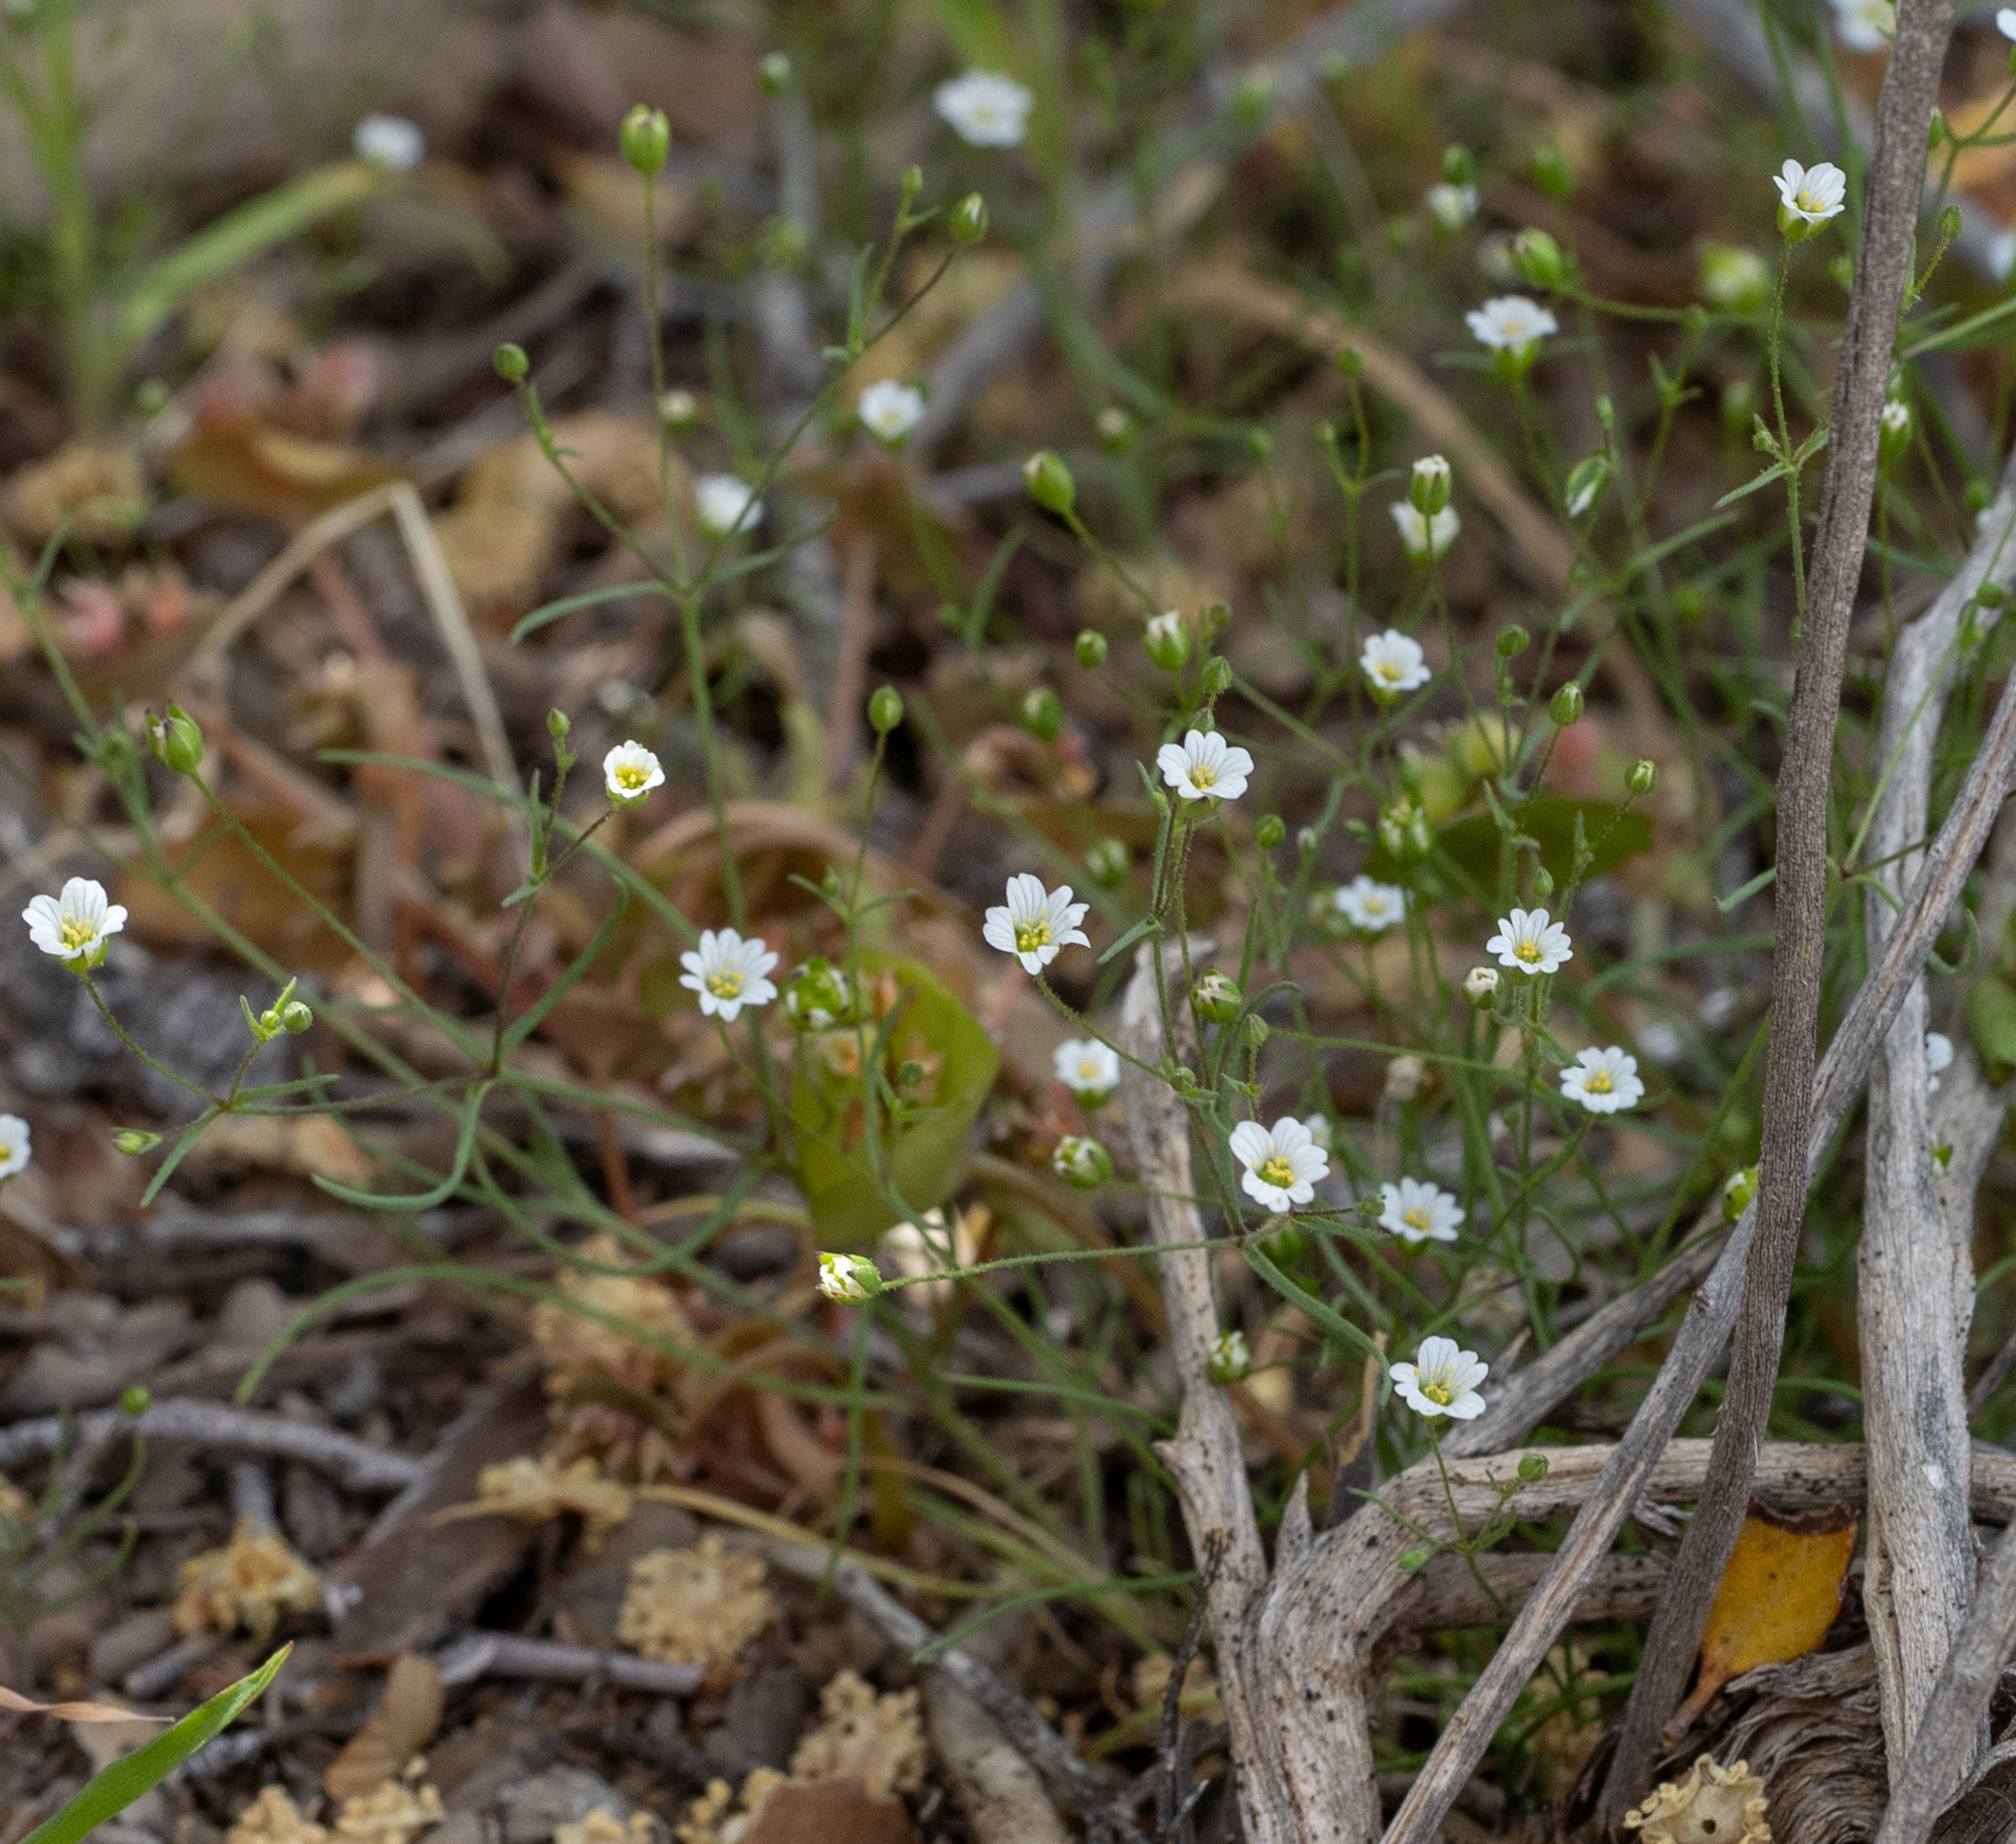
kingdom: Plantae
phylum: Tracheophyta
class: Magnoliopsida
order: Caryophyllales
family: Caryophyllaceae
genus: Sabulina
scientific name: Sabulina douglasii
